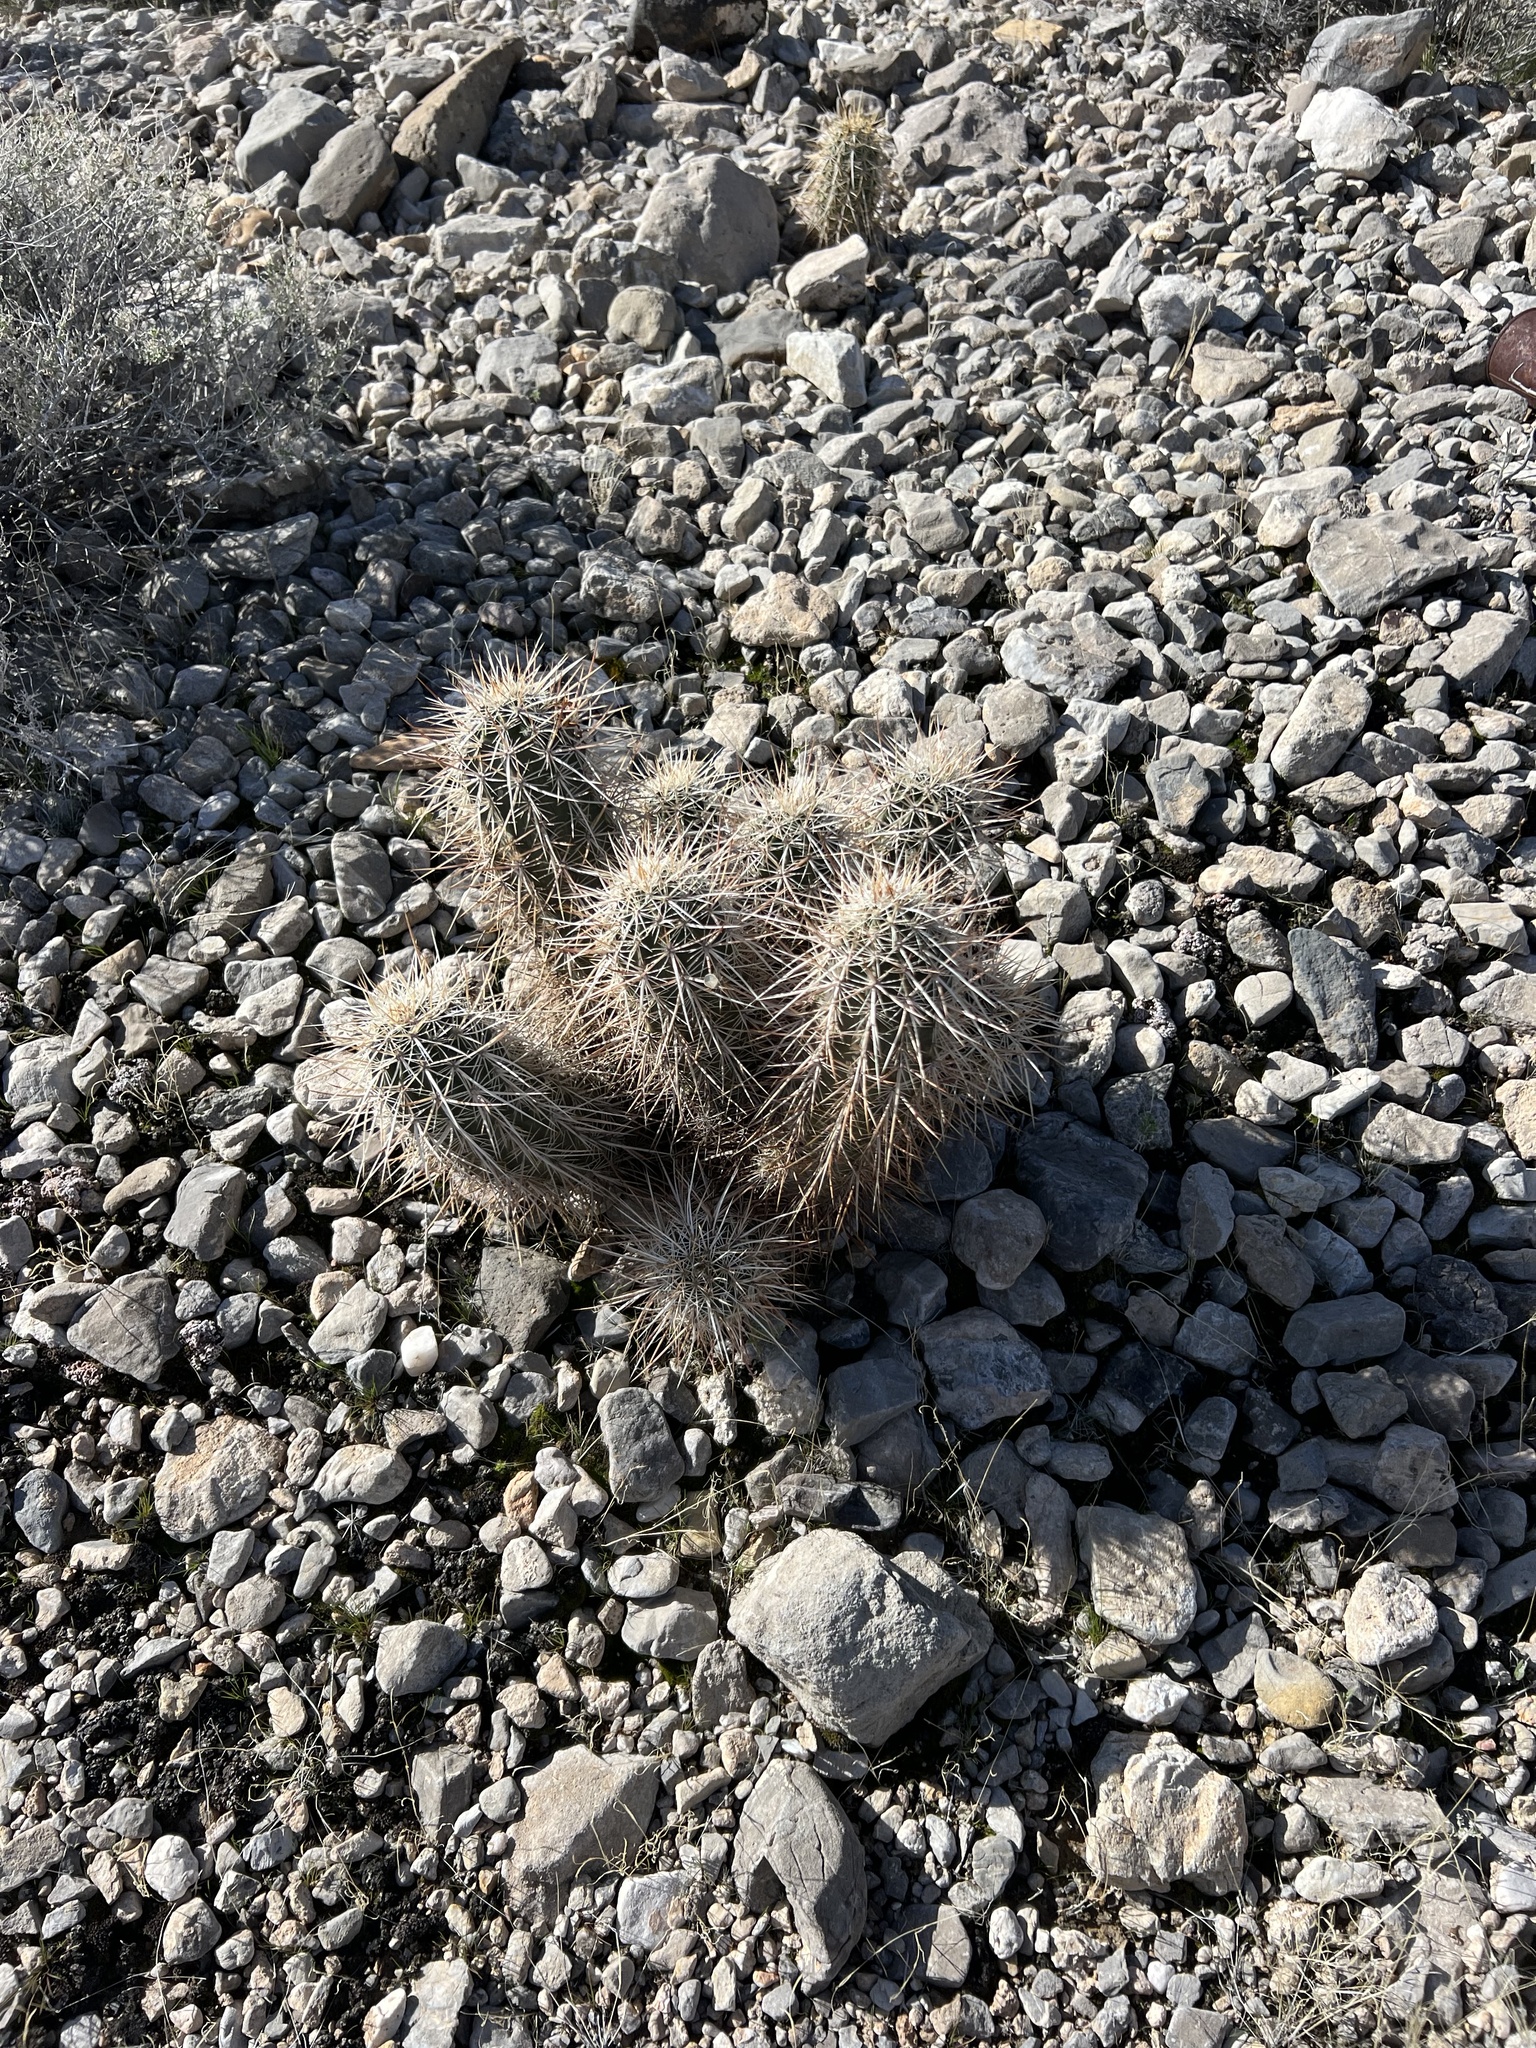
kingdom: Plantae
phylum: Tracheophyta
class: Magnoliopsida
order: Caryophyllales
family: Cactaceae
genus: Echinocereus
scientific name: Echinocereus engelmannii
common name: Engelmann's hedgehog cactus
